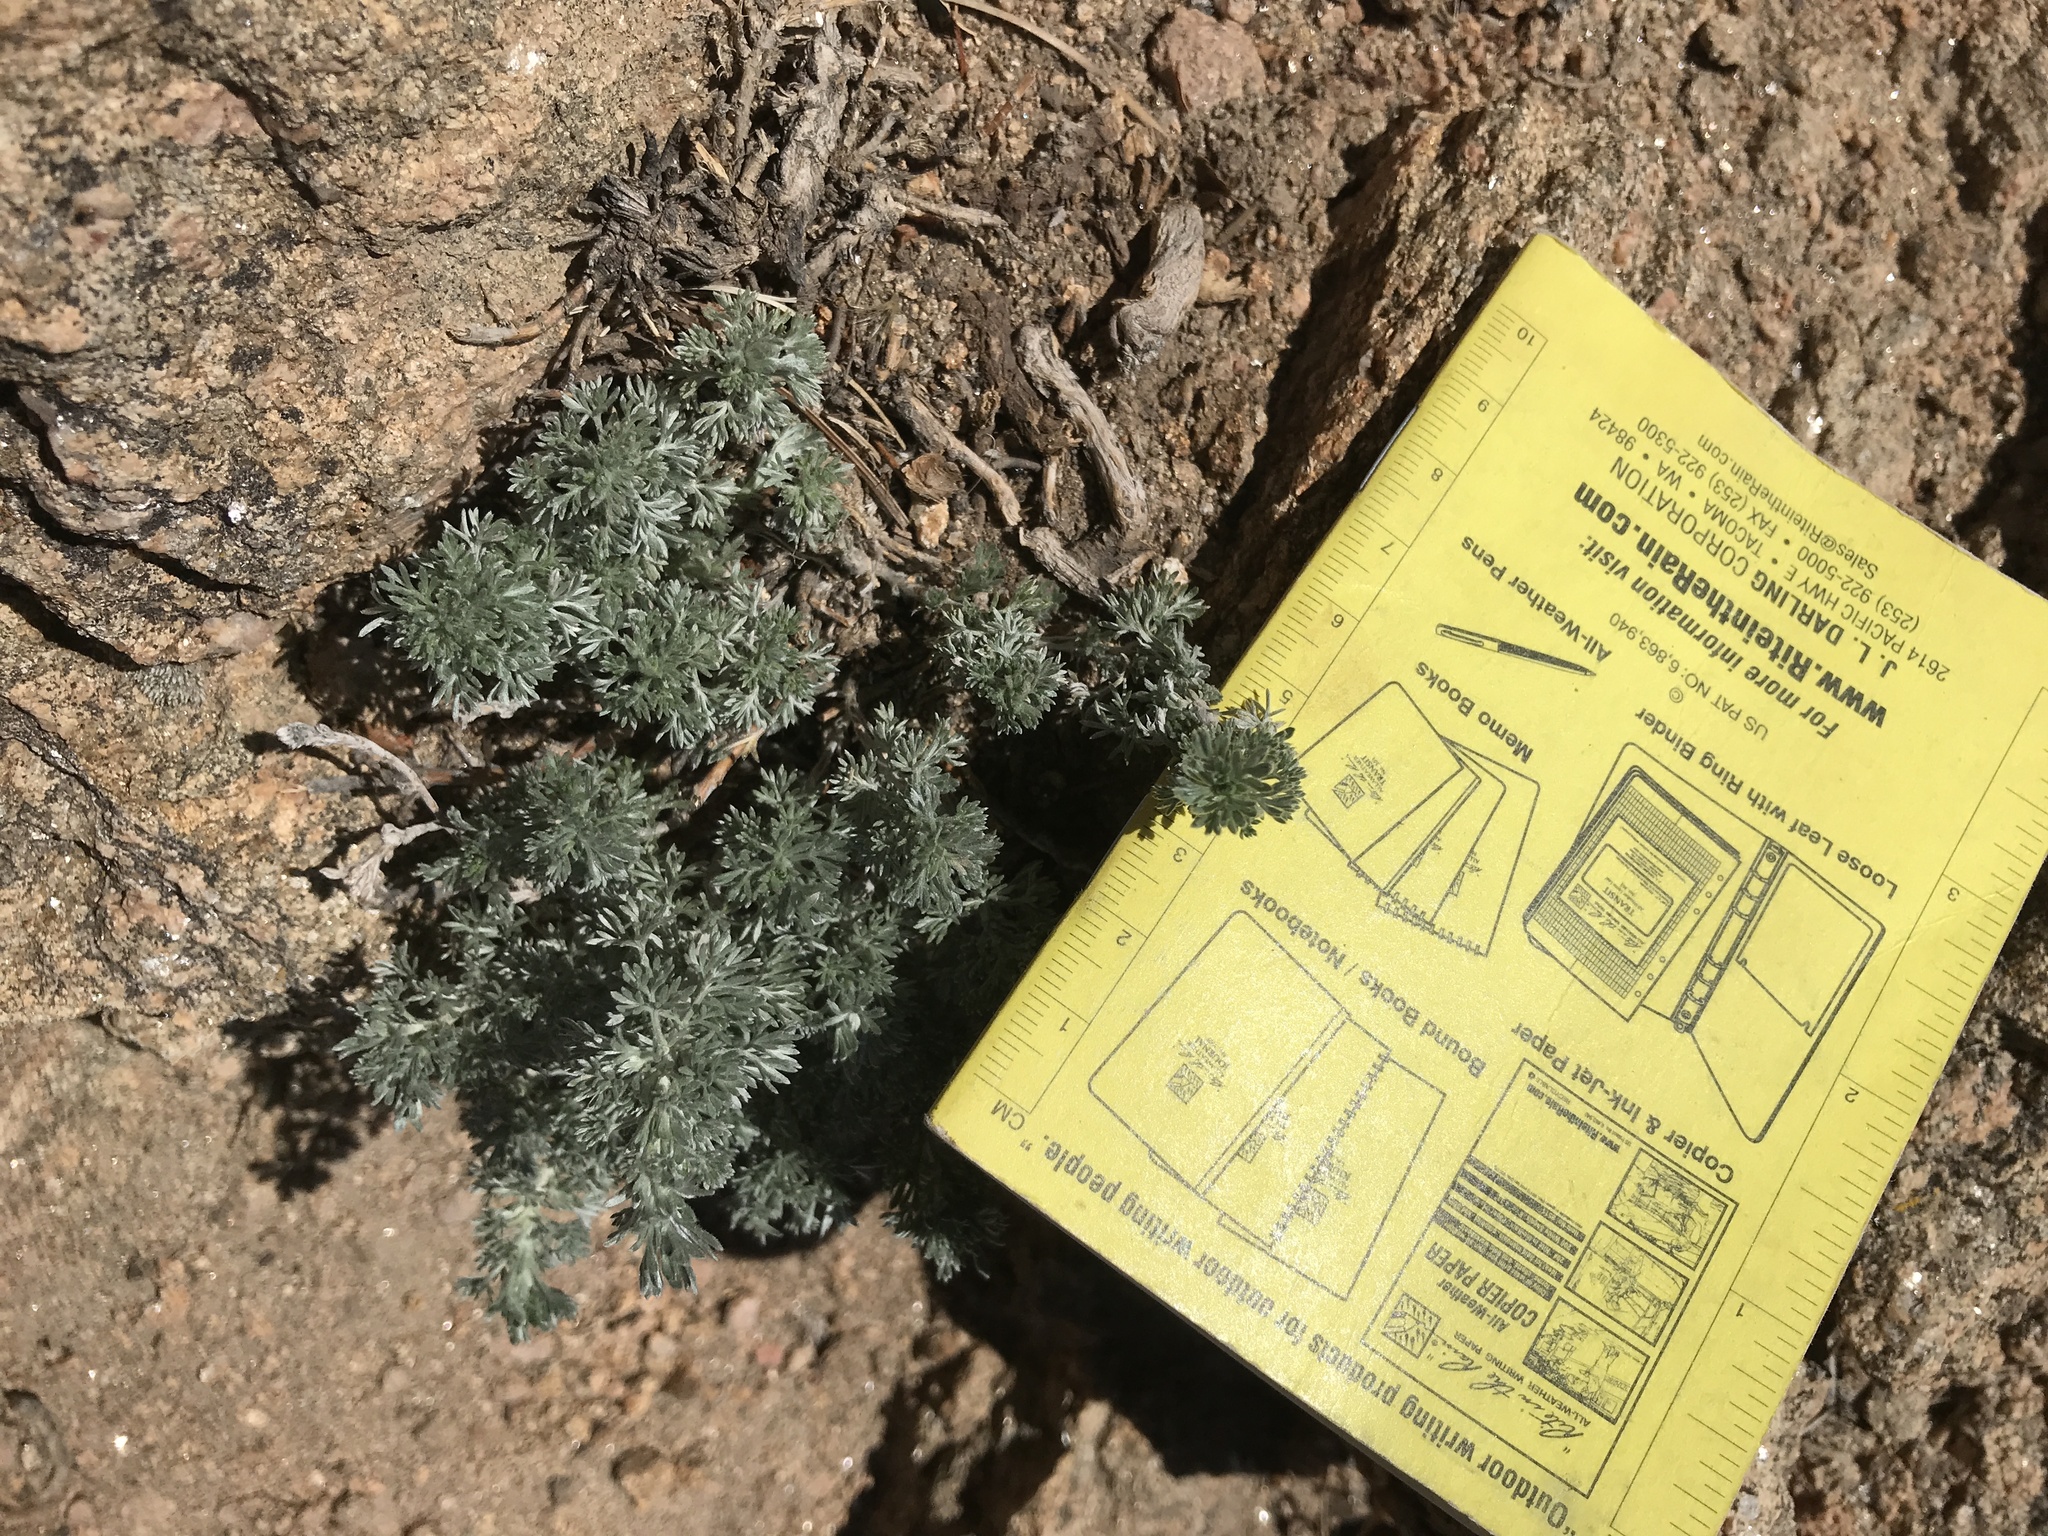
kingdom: Plantae
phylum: Tracheophyta
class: Magnoliopsida
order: Asterales
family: Asteraceae
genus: Artemisia
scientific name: Artemisia frigida
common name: Prairie sagewort
